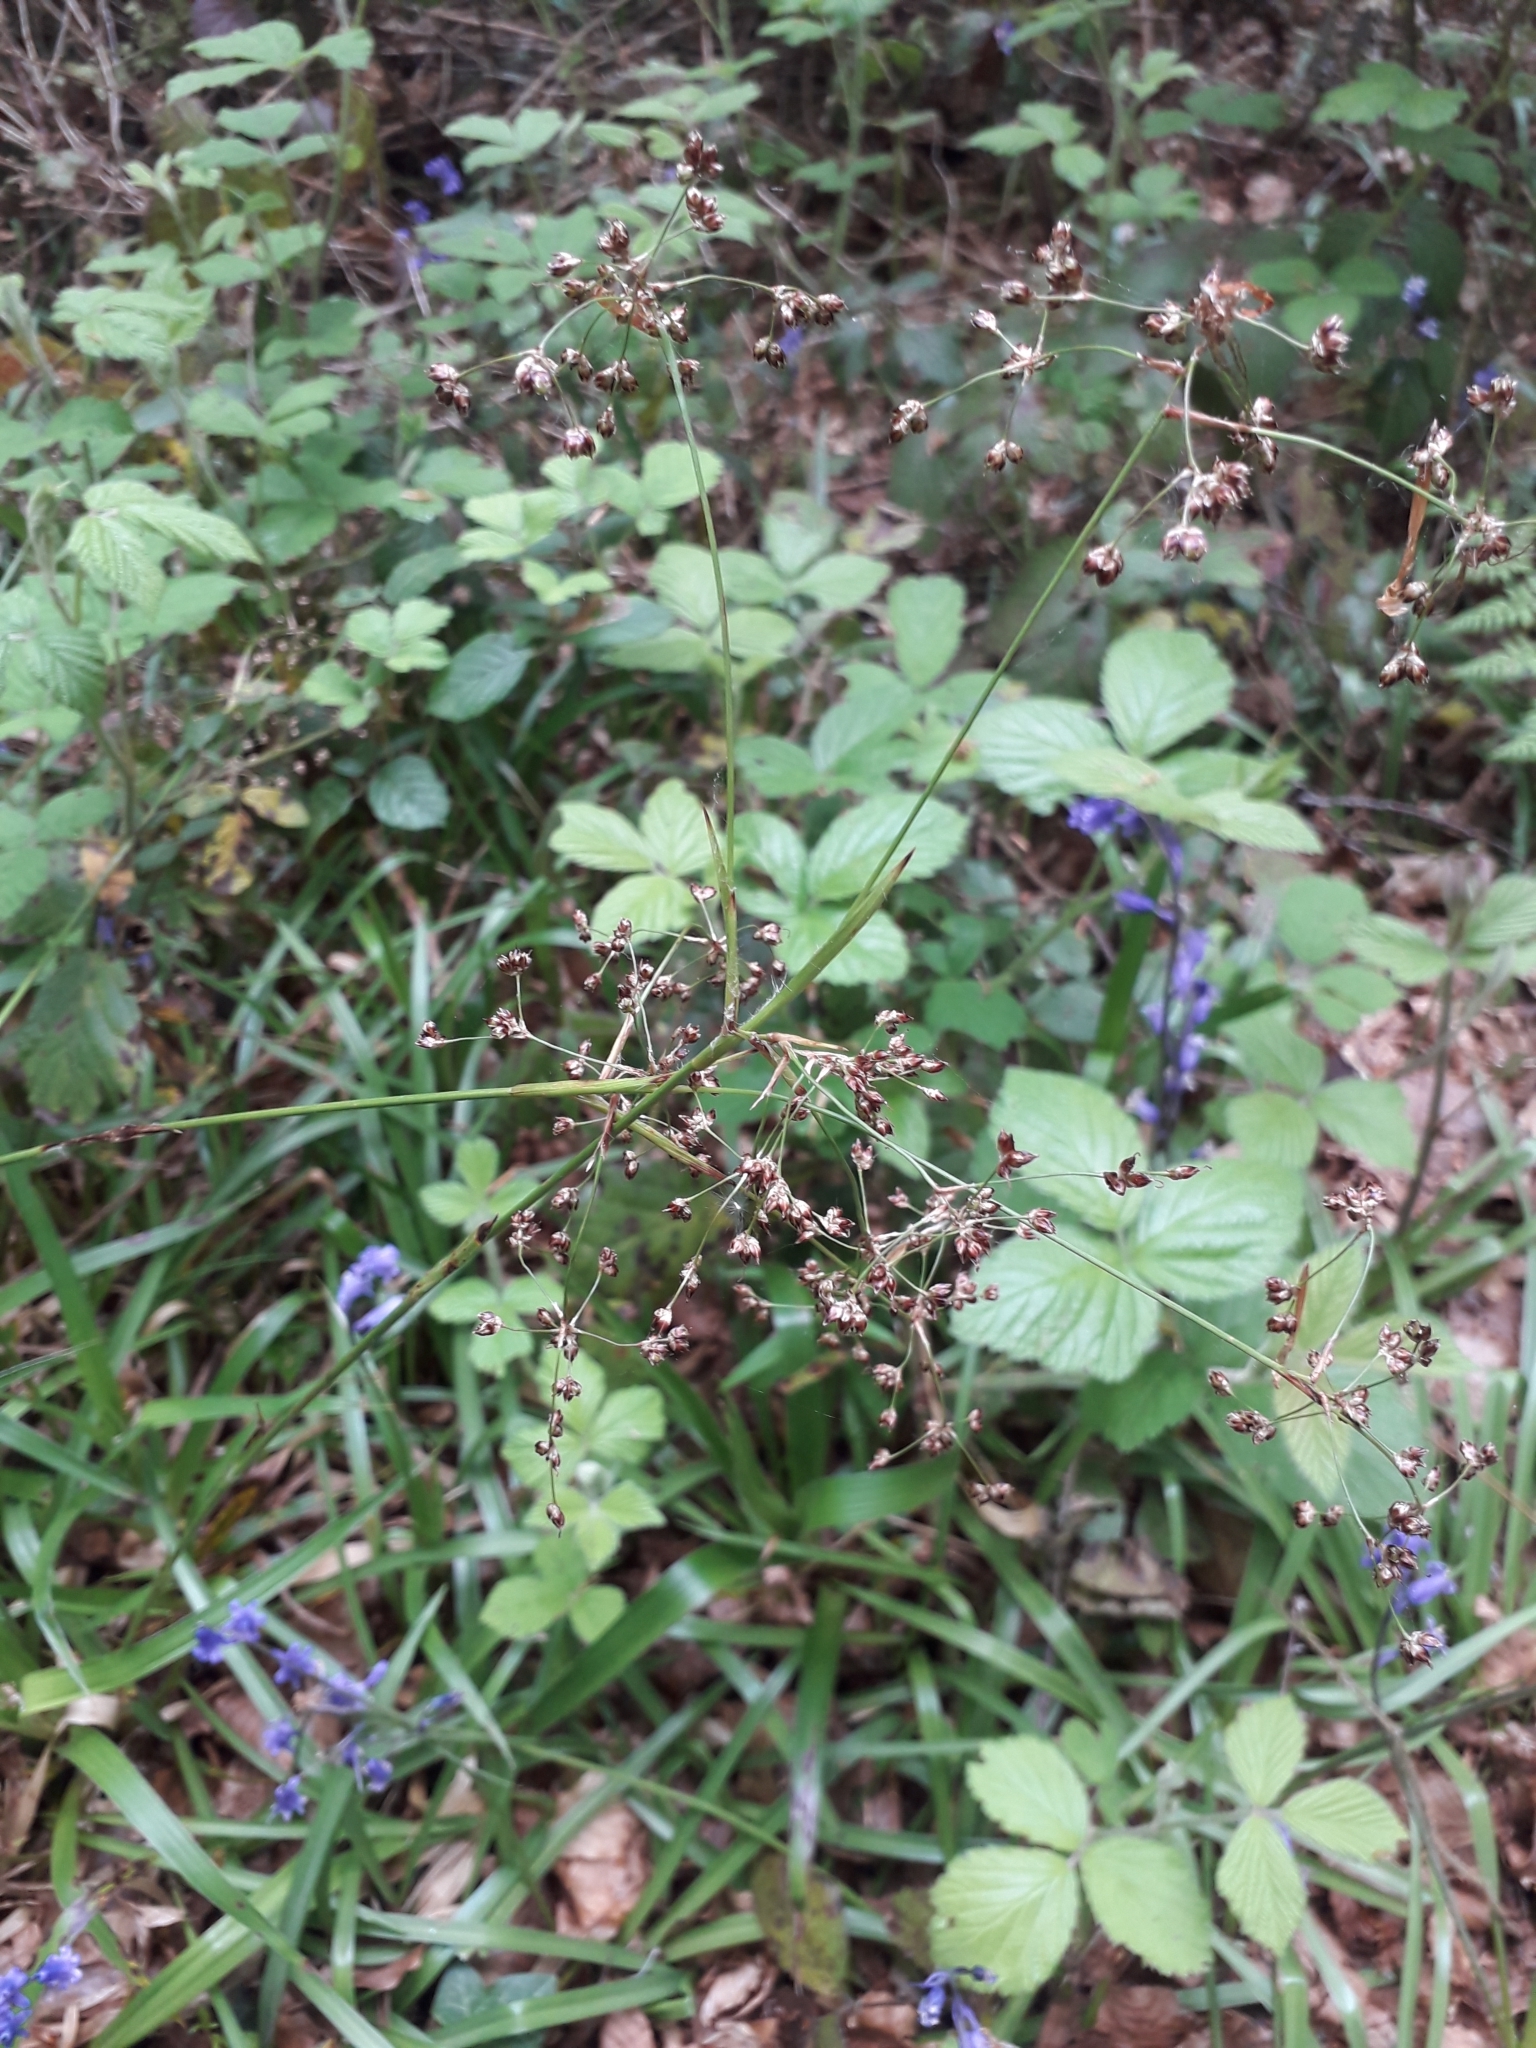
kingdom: Plantae
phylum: Tracheophyta
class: Liliopsida
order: Poales
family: Juncaceae
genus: Luzula
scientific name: Luzula pilosa
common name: Hairy wood-rush
